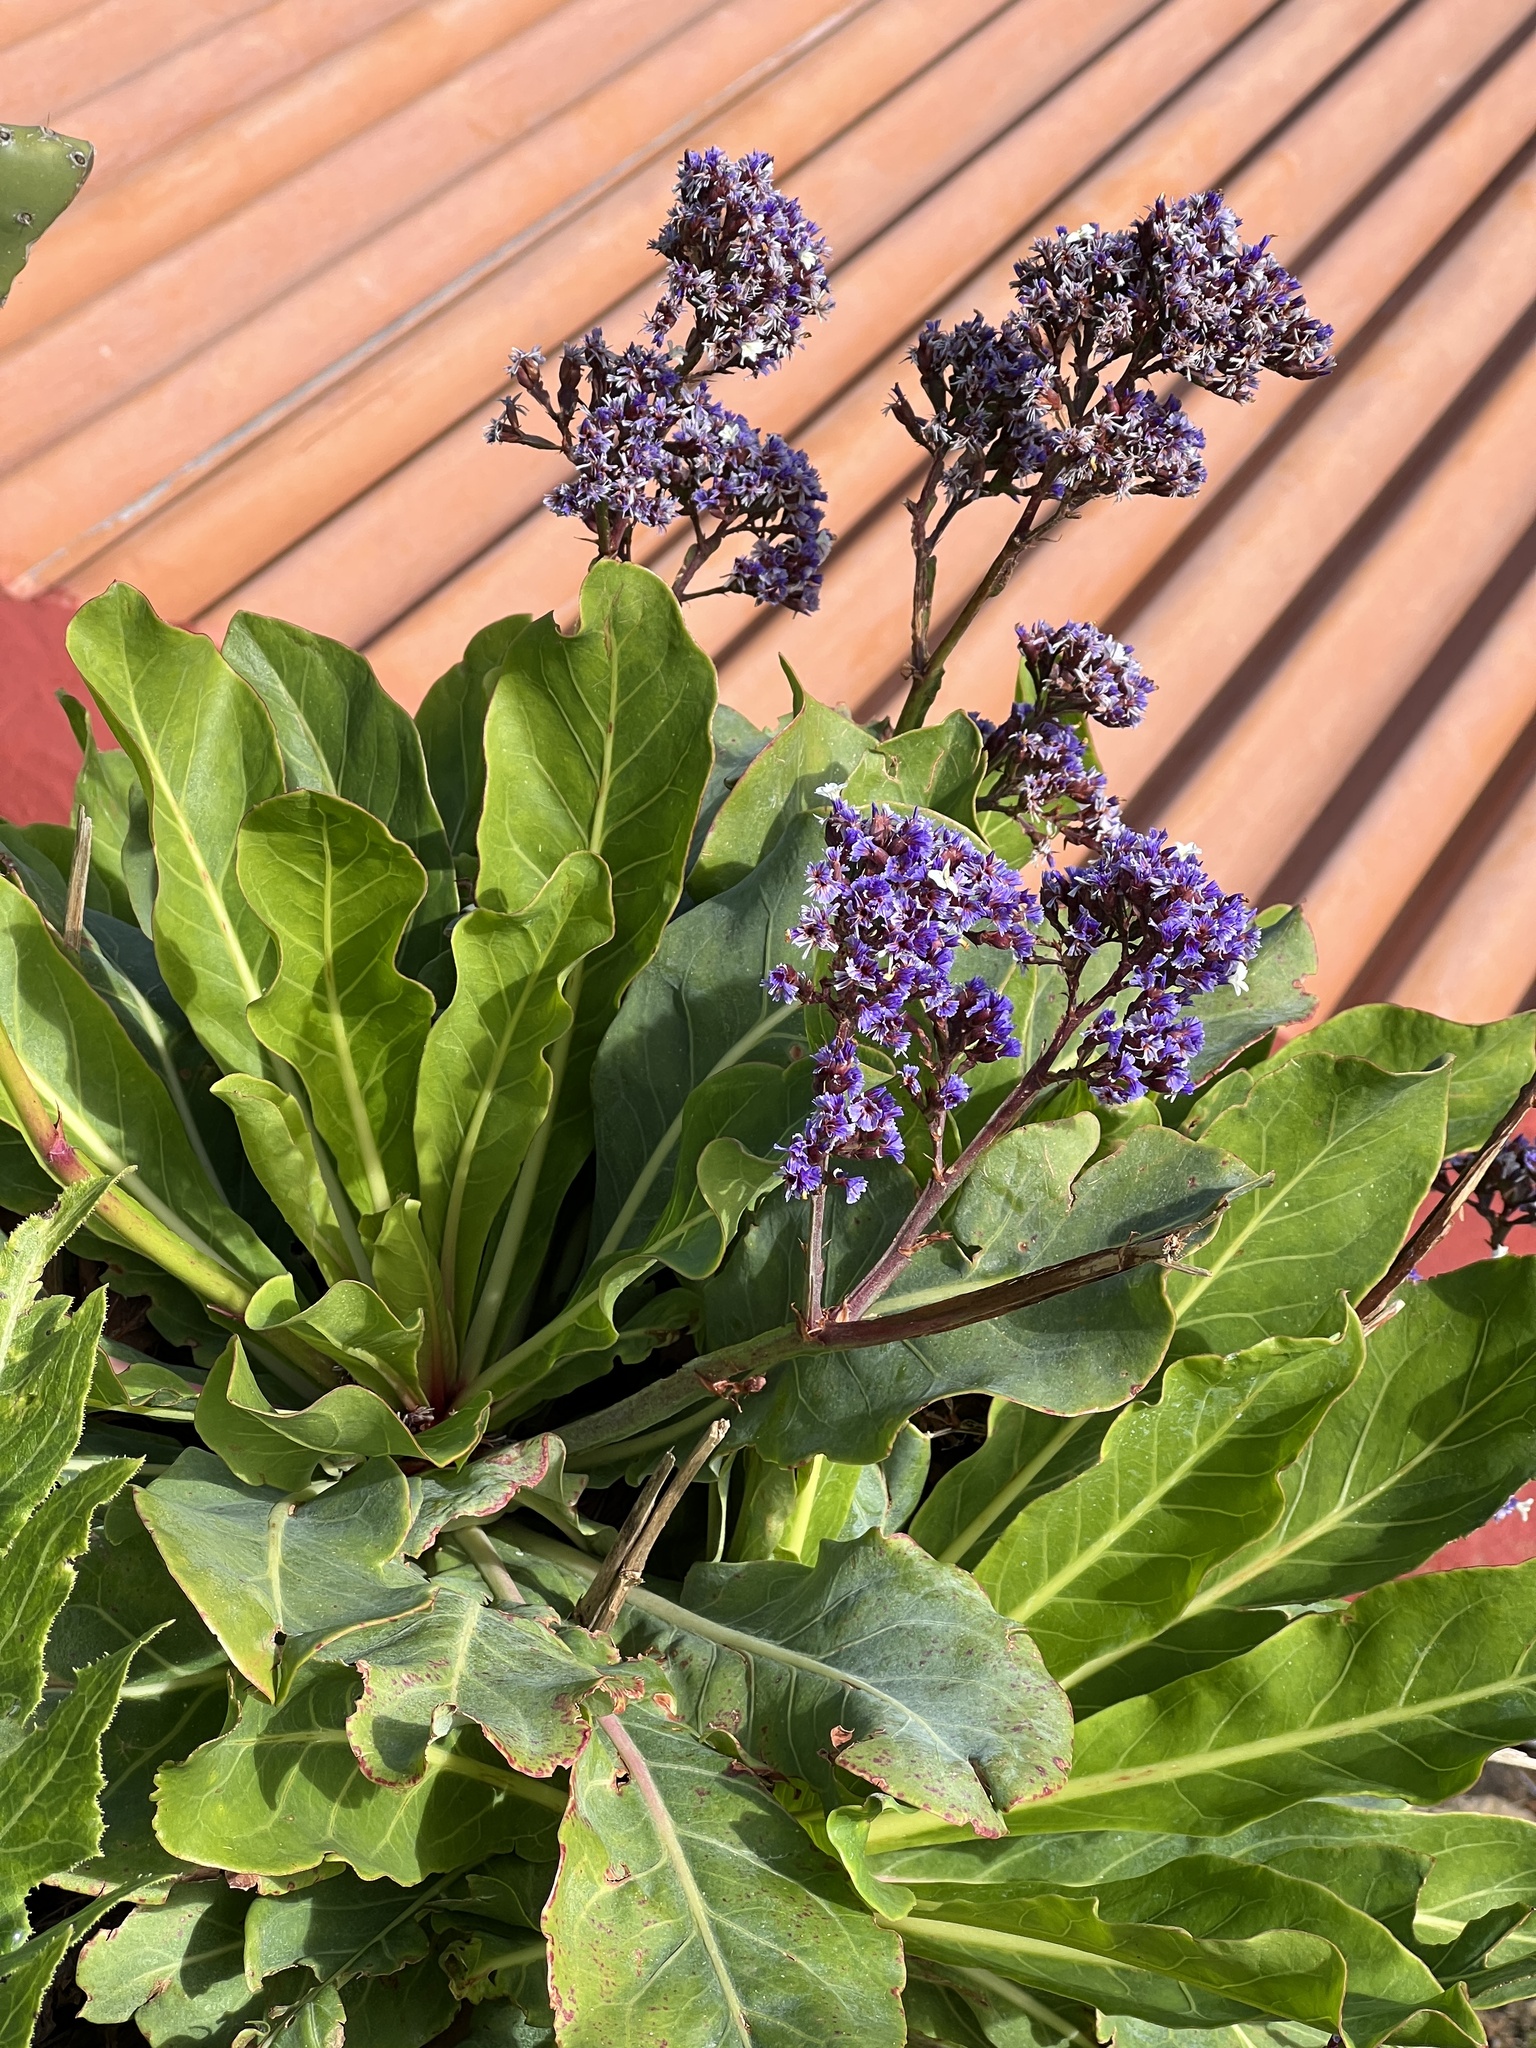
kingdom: Plantae
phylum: Tracheophyta
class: Magnoliopsida
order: Caryophyllales
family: Plumbaginaceae
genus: Limonium
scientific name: Limonium macrophyllum
